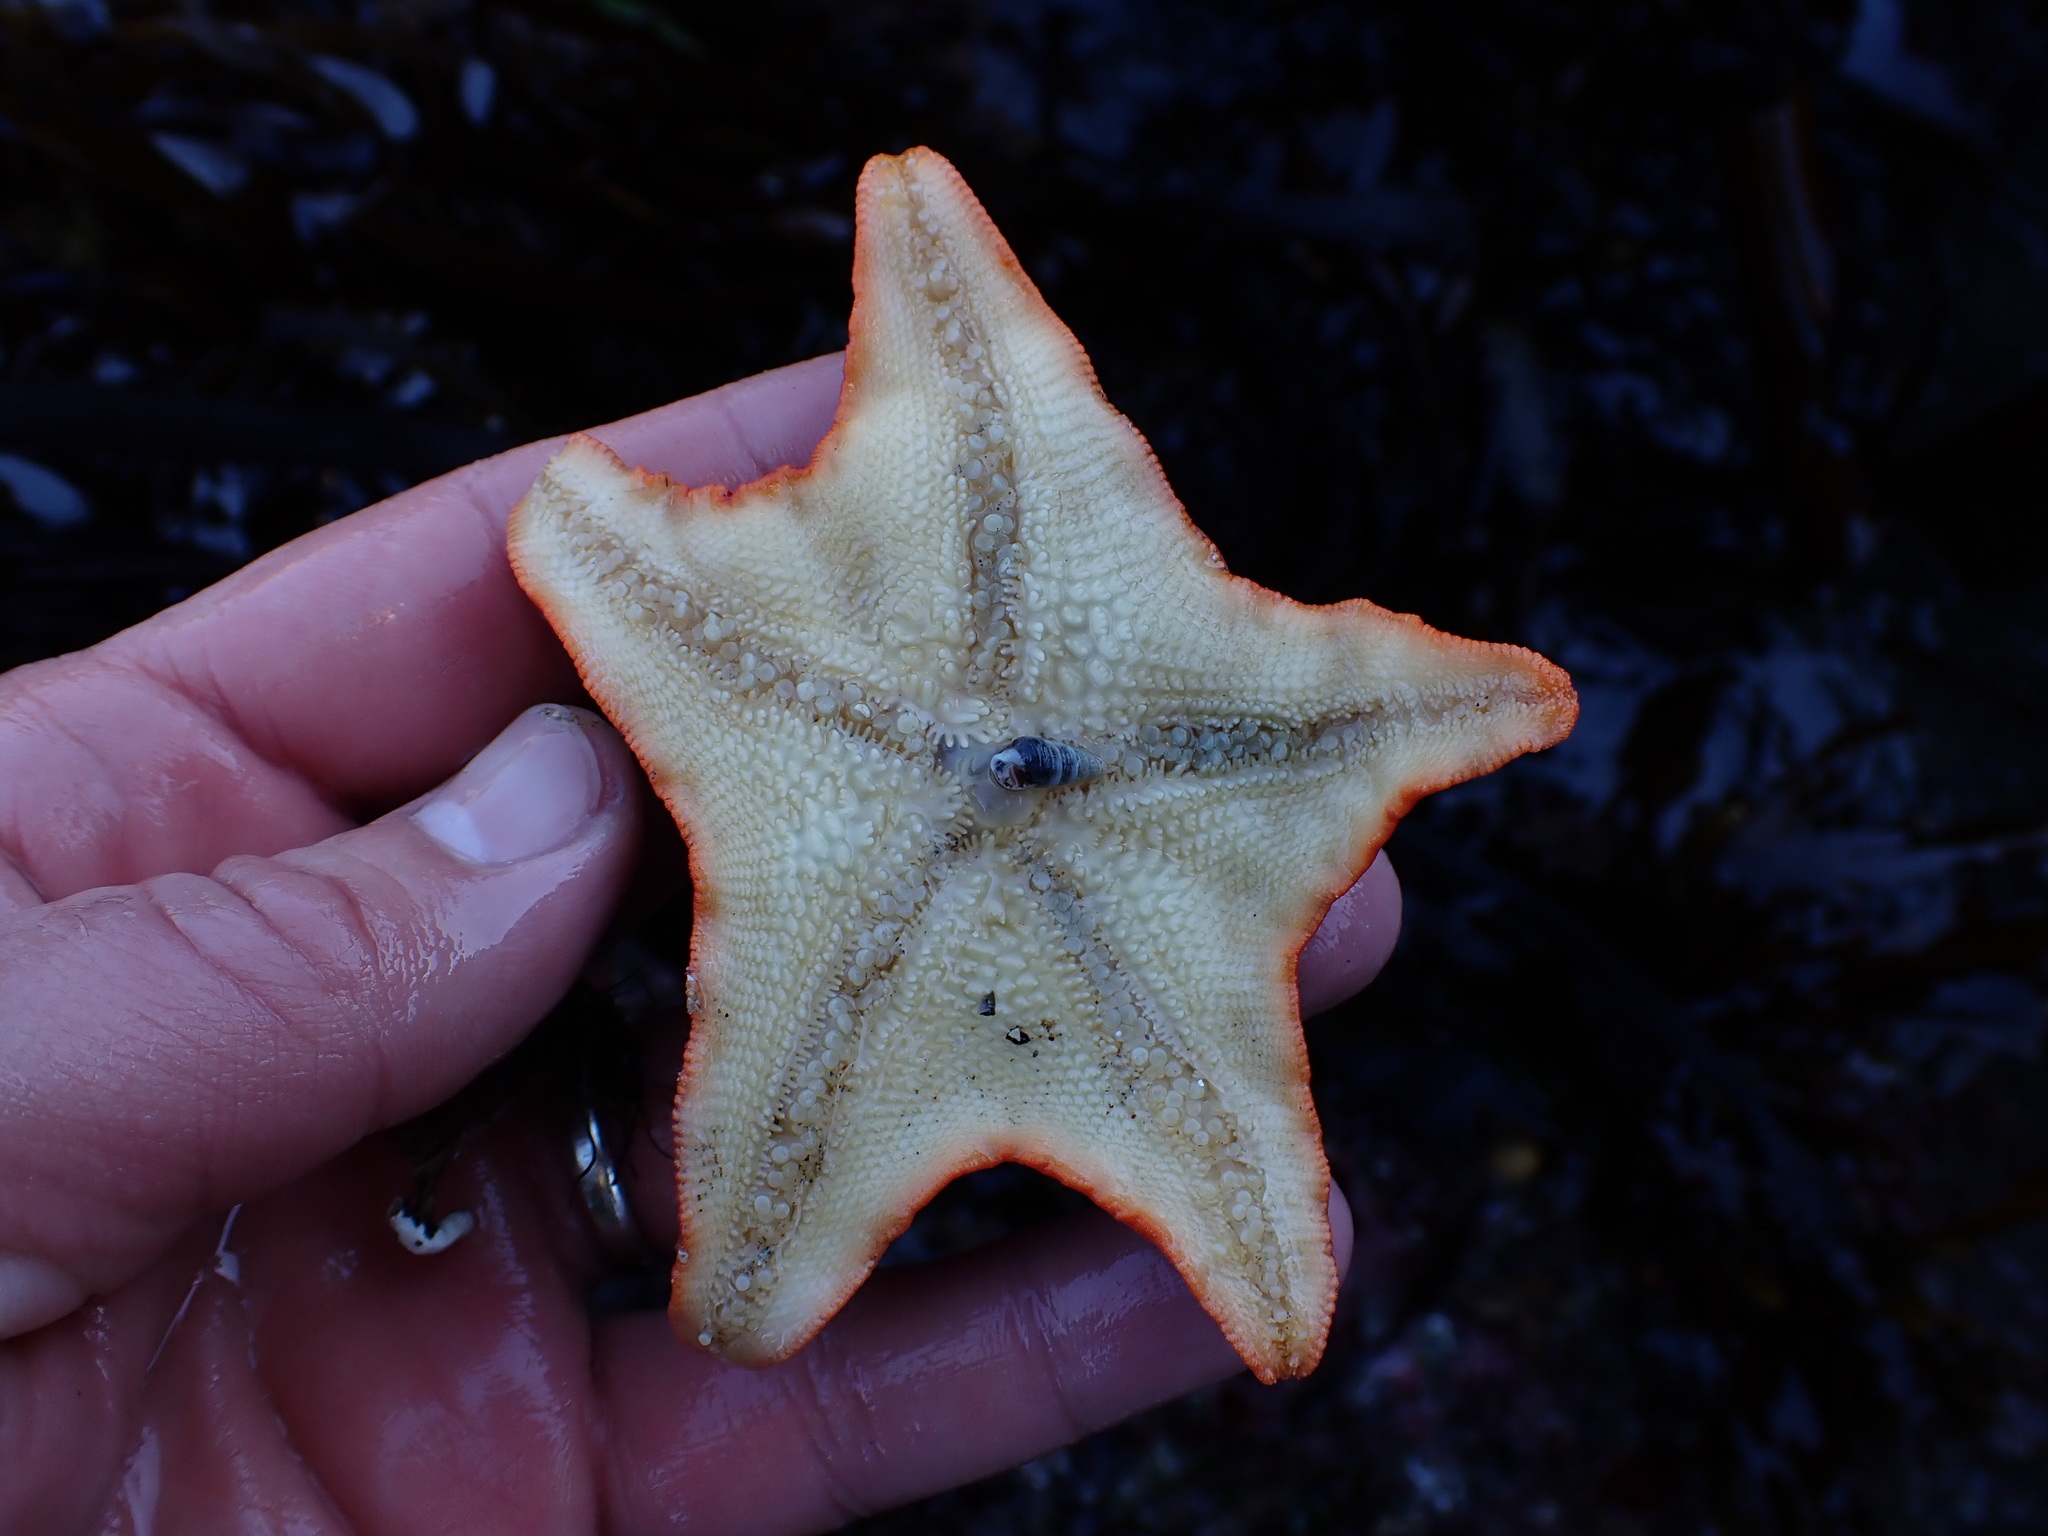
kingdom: Animalia
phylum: Echinodermata
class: Asteroidea
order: Valvatida
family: Asterinidae
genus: Patiria
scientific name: Patiria miniata
